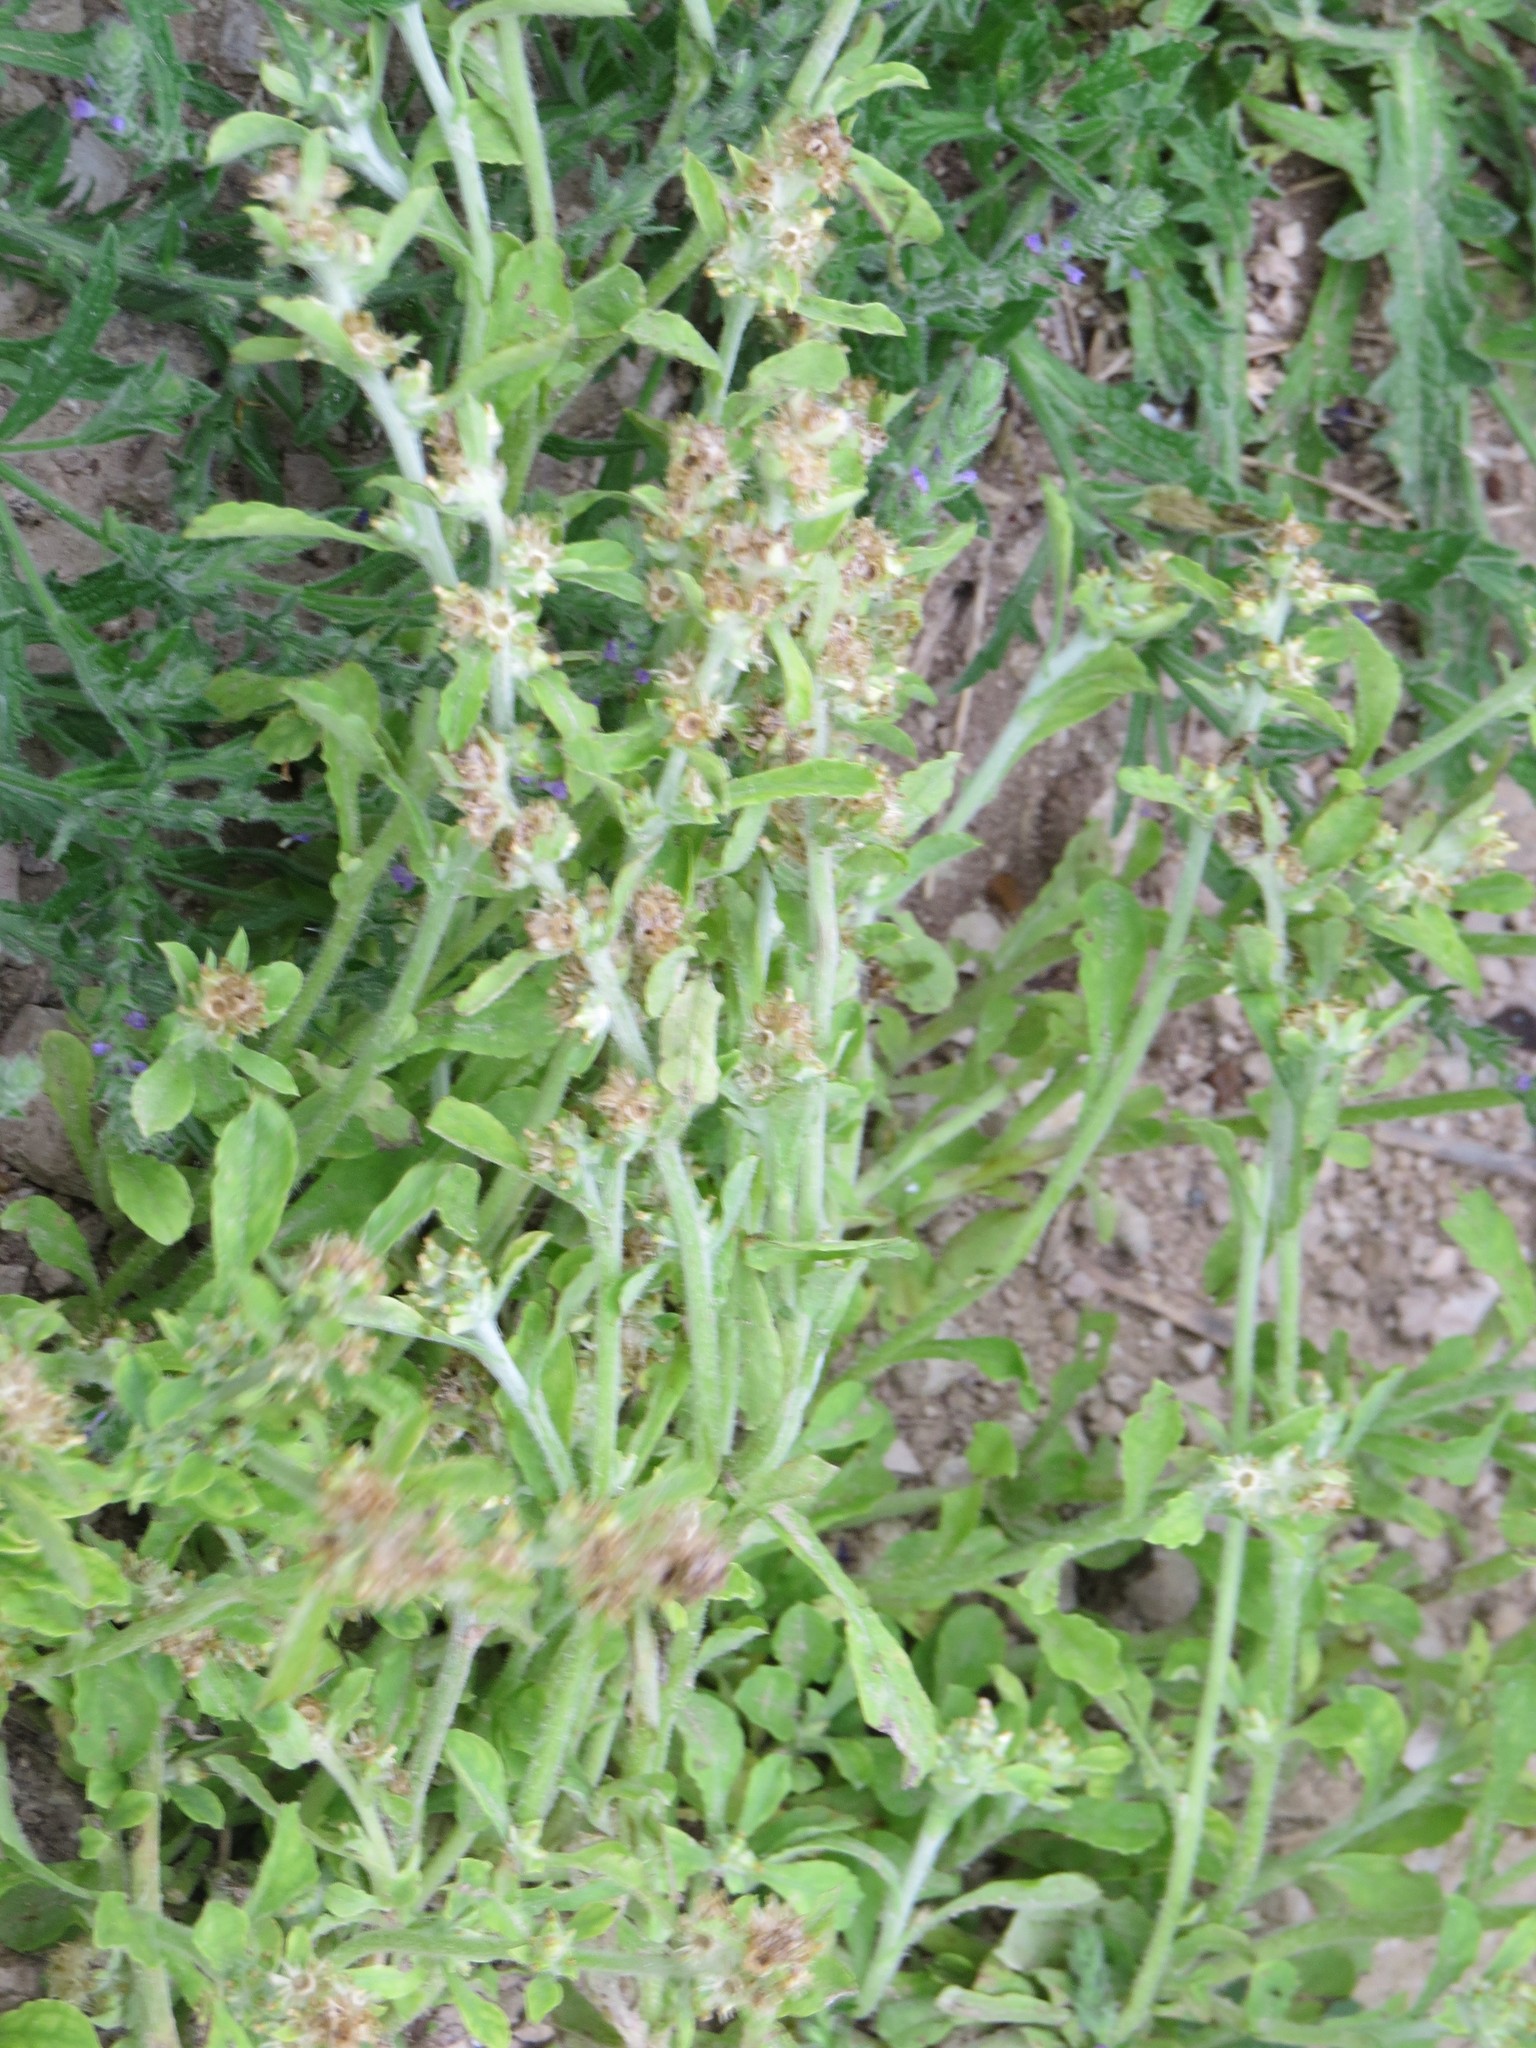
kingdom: Plantae
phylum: Tracheophyta
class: Magnoliopsida
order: Asterales
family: Asteraceae
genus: Gamochaeta
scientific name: Gamochaeta pensylvanica
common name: Pennsylvania everlasting
